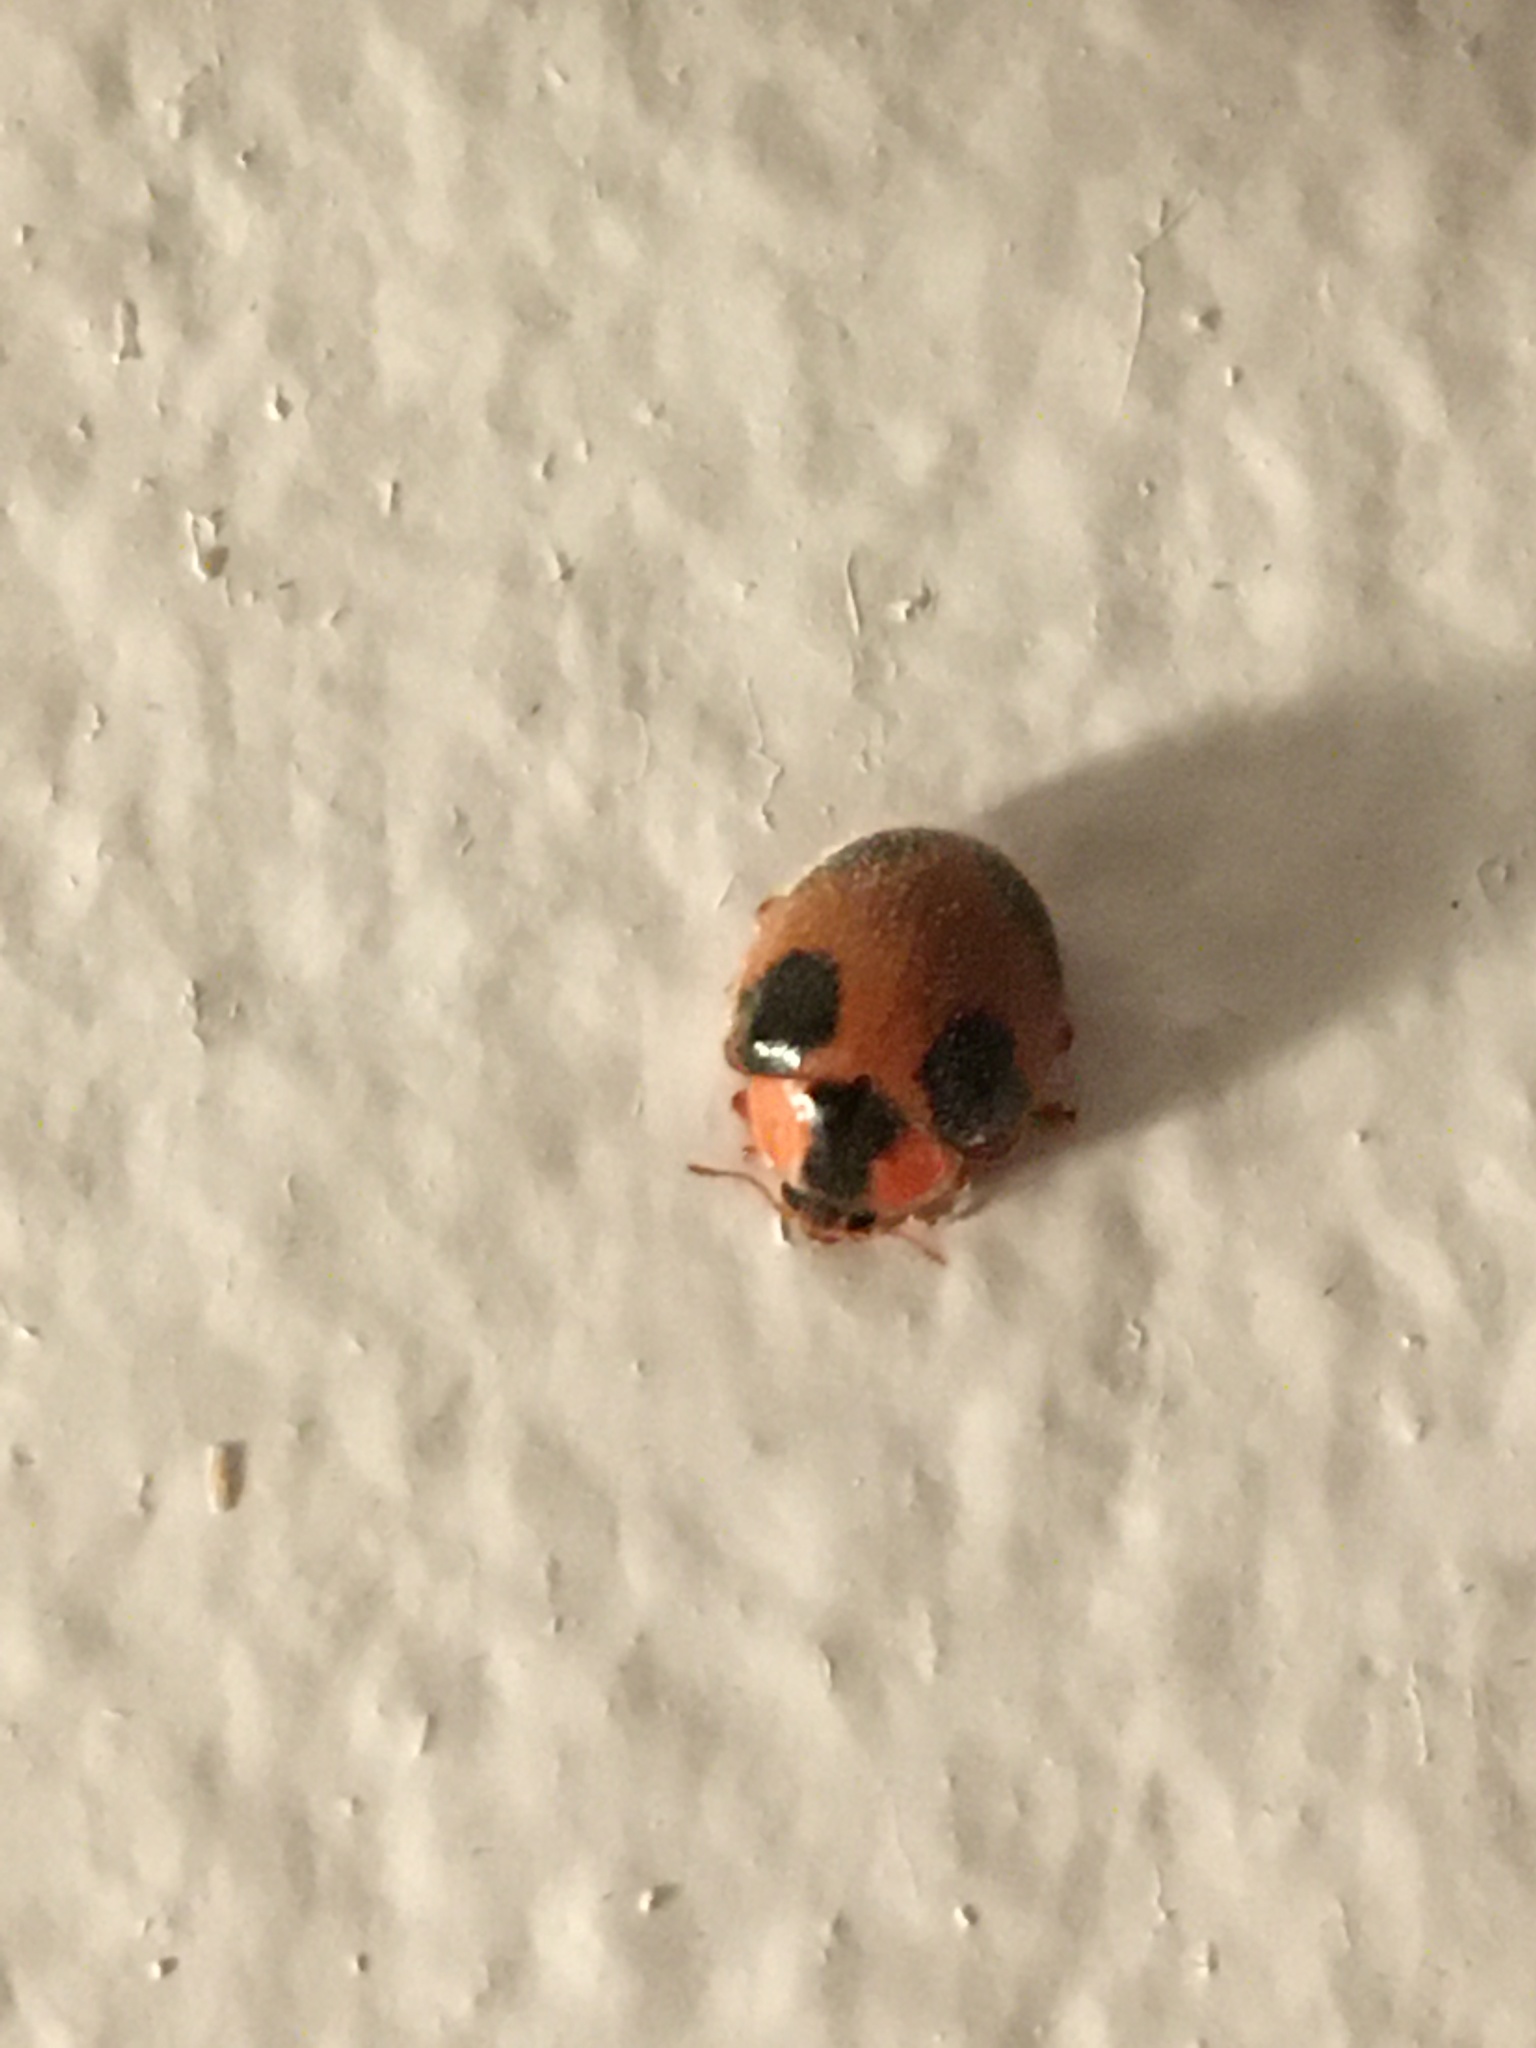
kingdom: Animalia
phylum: Arthropoda
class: Insecta
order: Coleoptera
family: Coccinellidae
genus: Eupalea
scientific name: Eupalea
